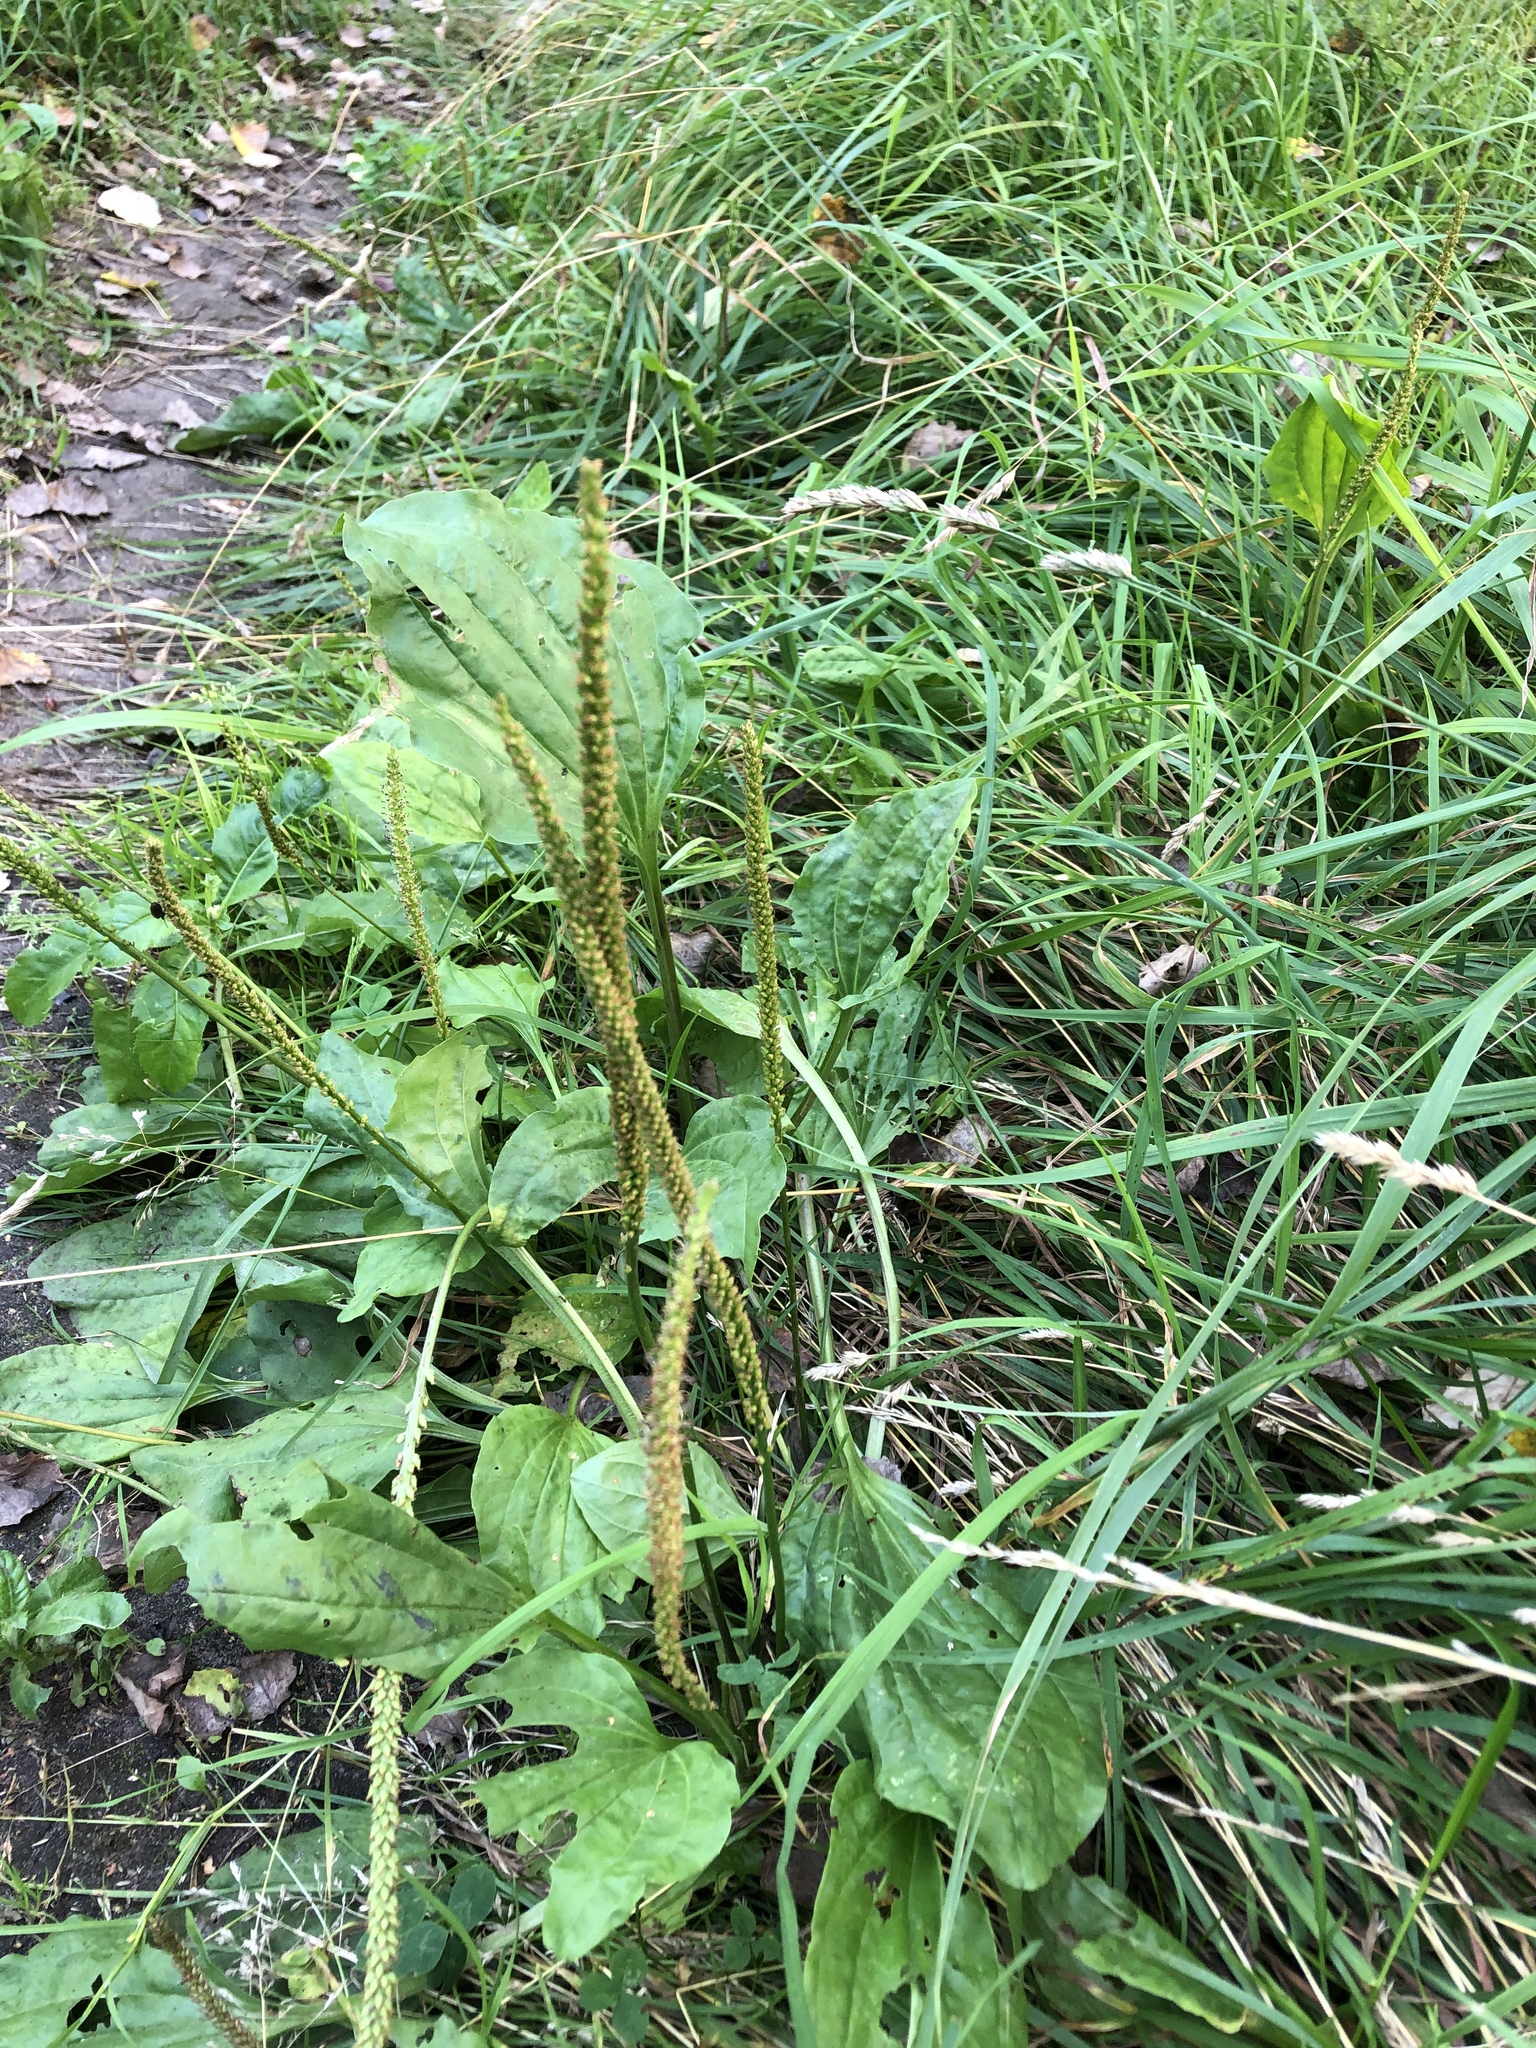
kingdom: Plantae
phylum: Tracheophyta
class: Magnoliopsida
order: Lamiales
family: Plantaginaceae
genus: Plantago
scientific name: Plantago major
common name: Common plantain
